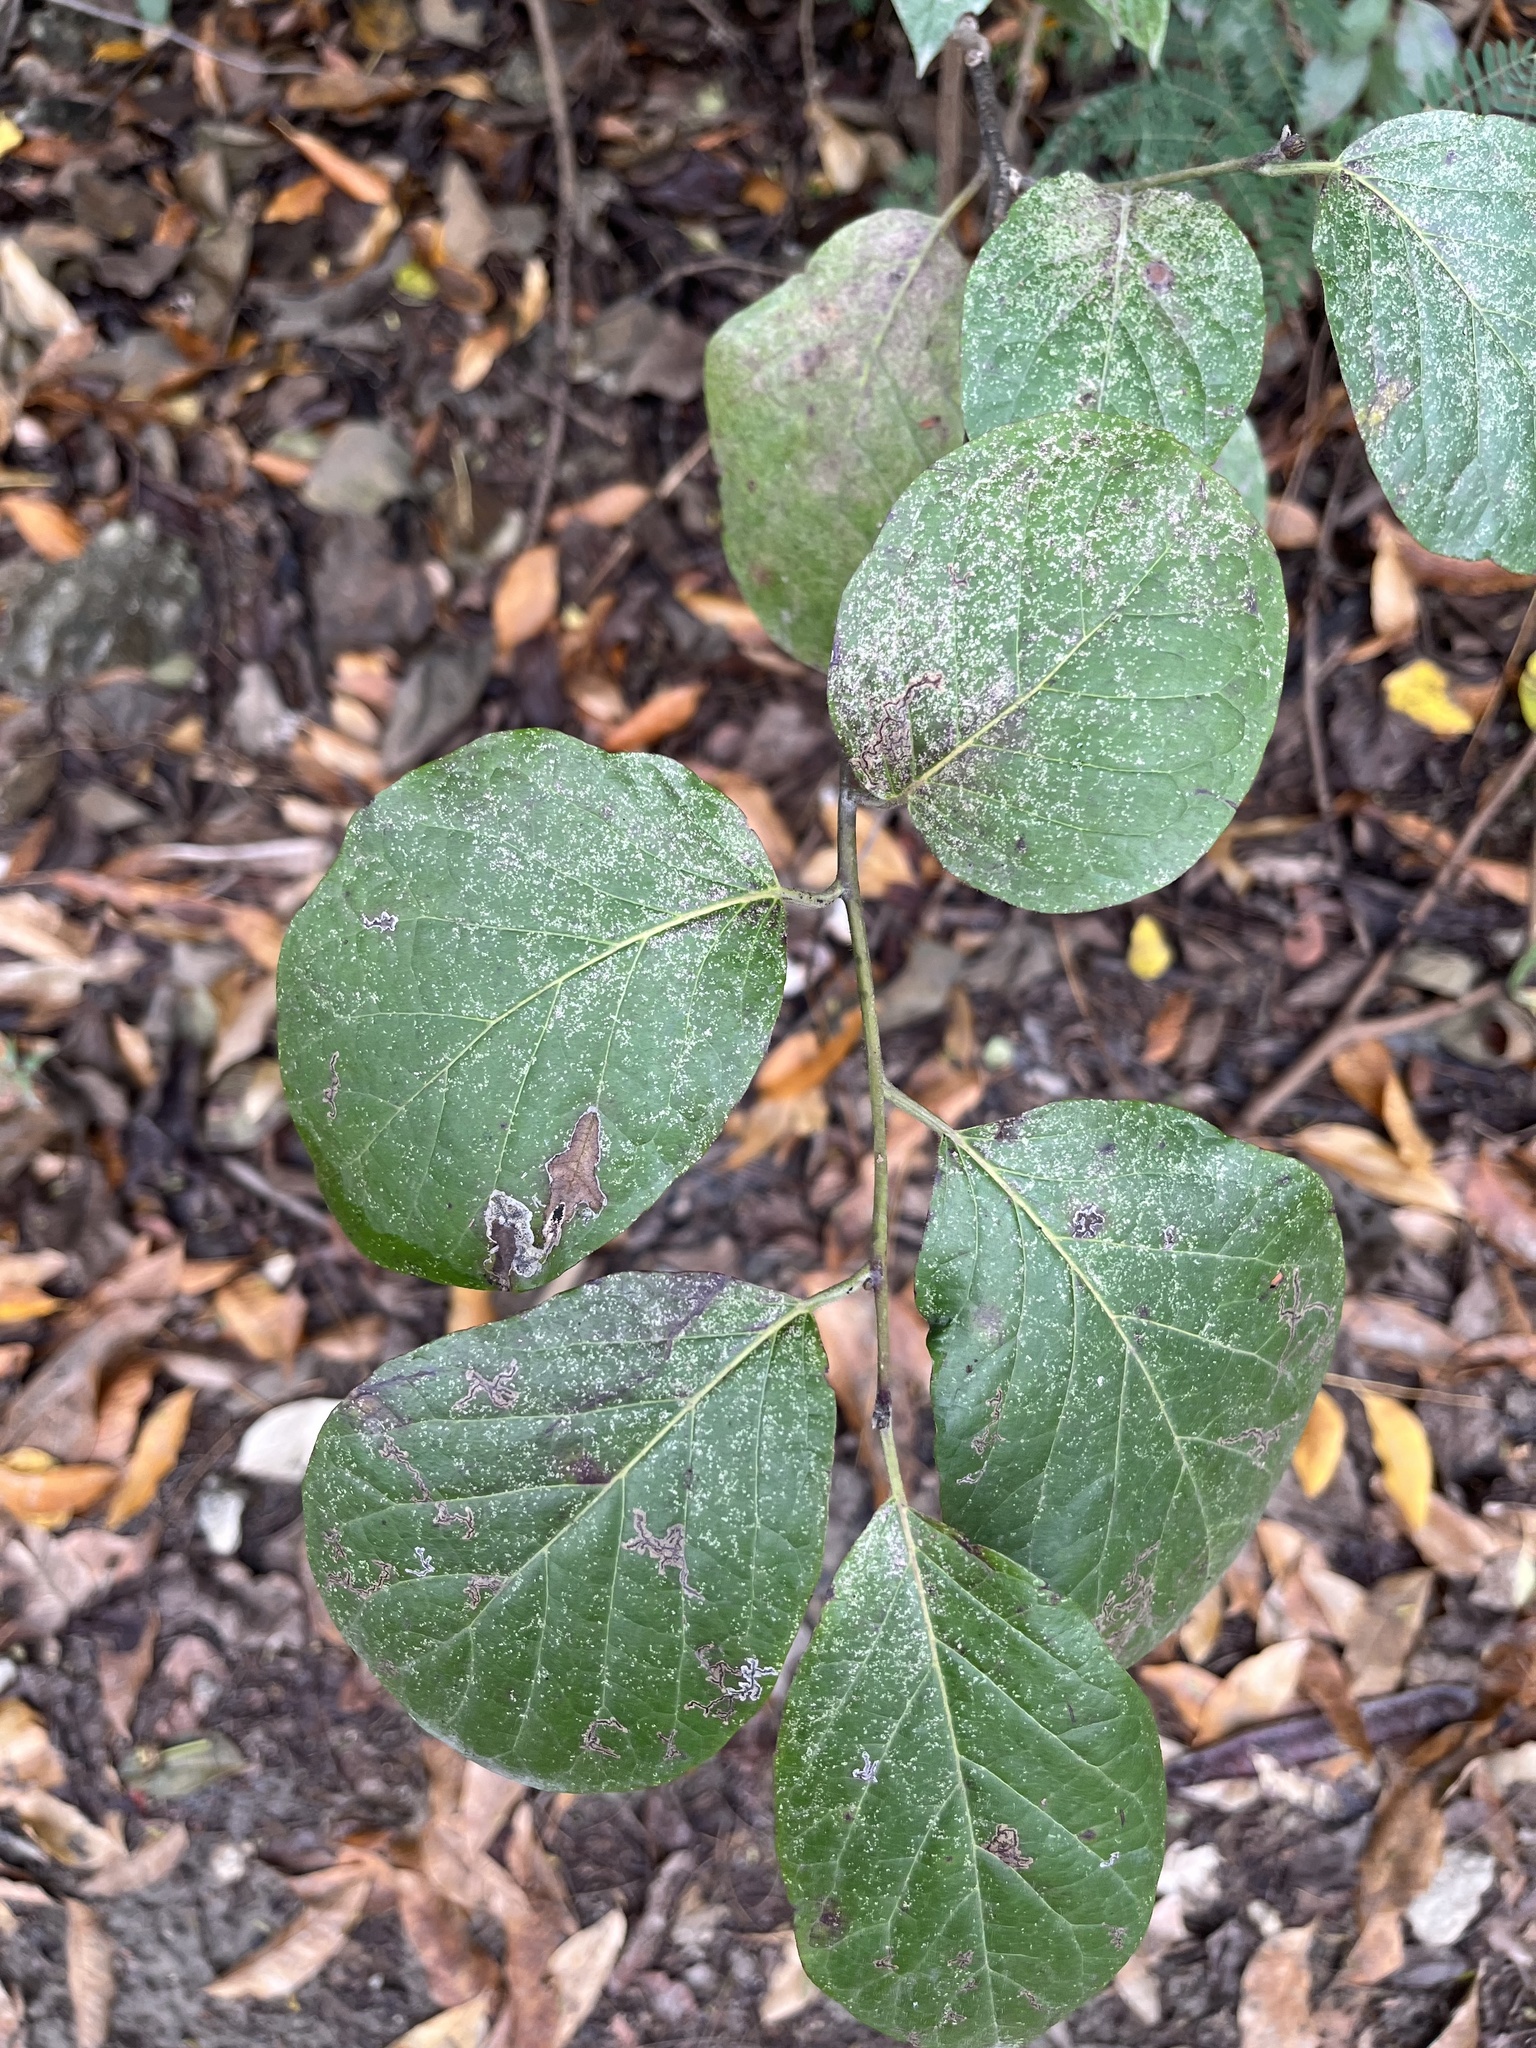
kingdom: Plantae
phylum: Tracheophyta
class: Magnoliopsida
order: Boraginales
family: Ehretiaceae
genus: Ehretia
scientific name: Ehretia resinosa
